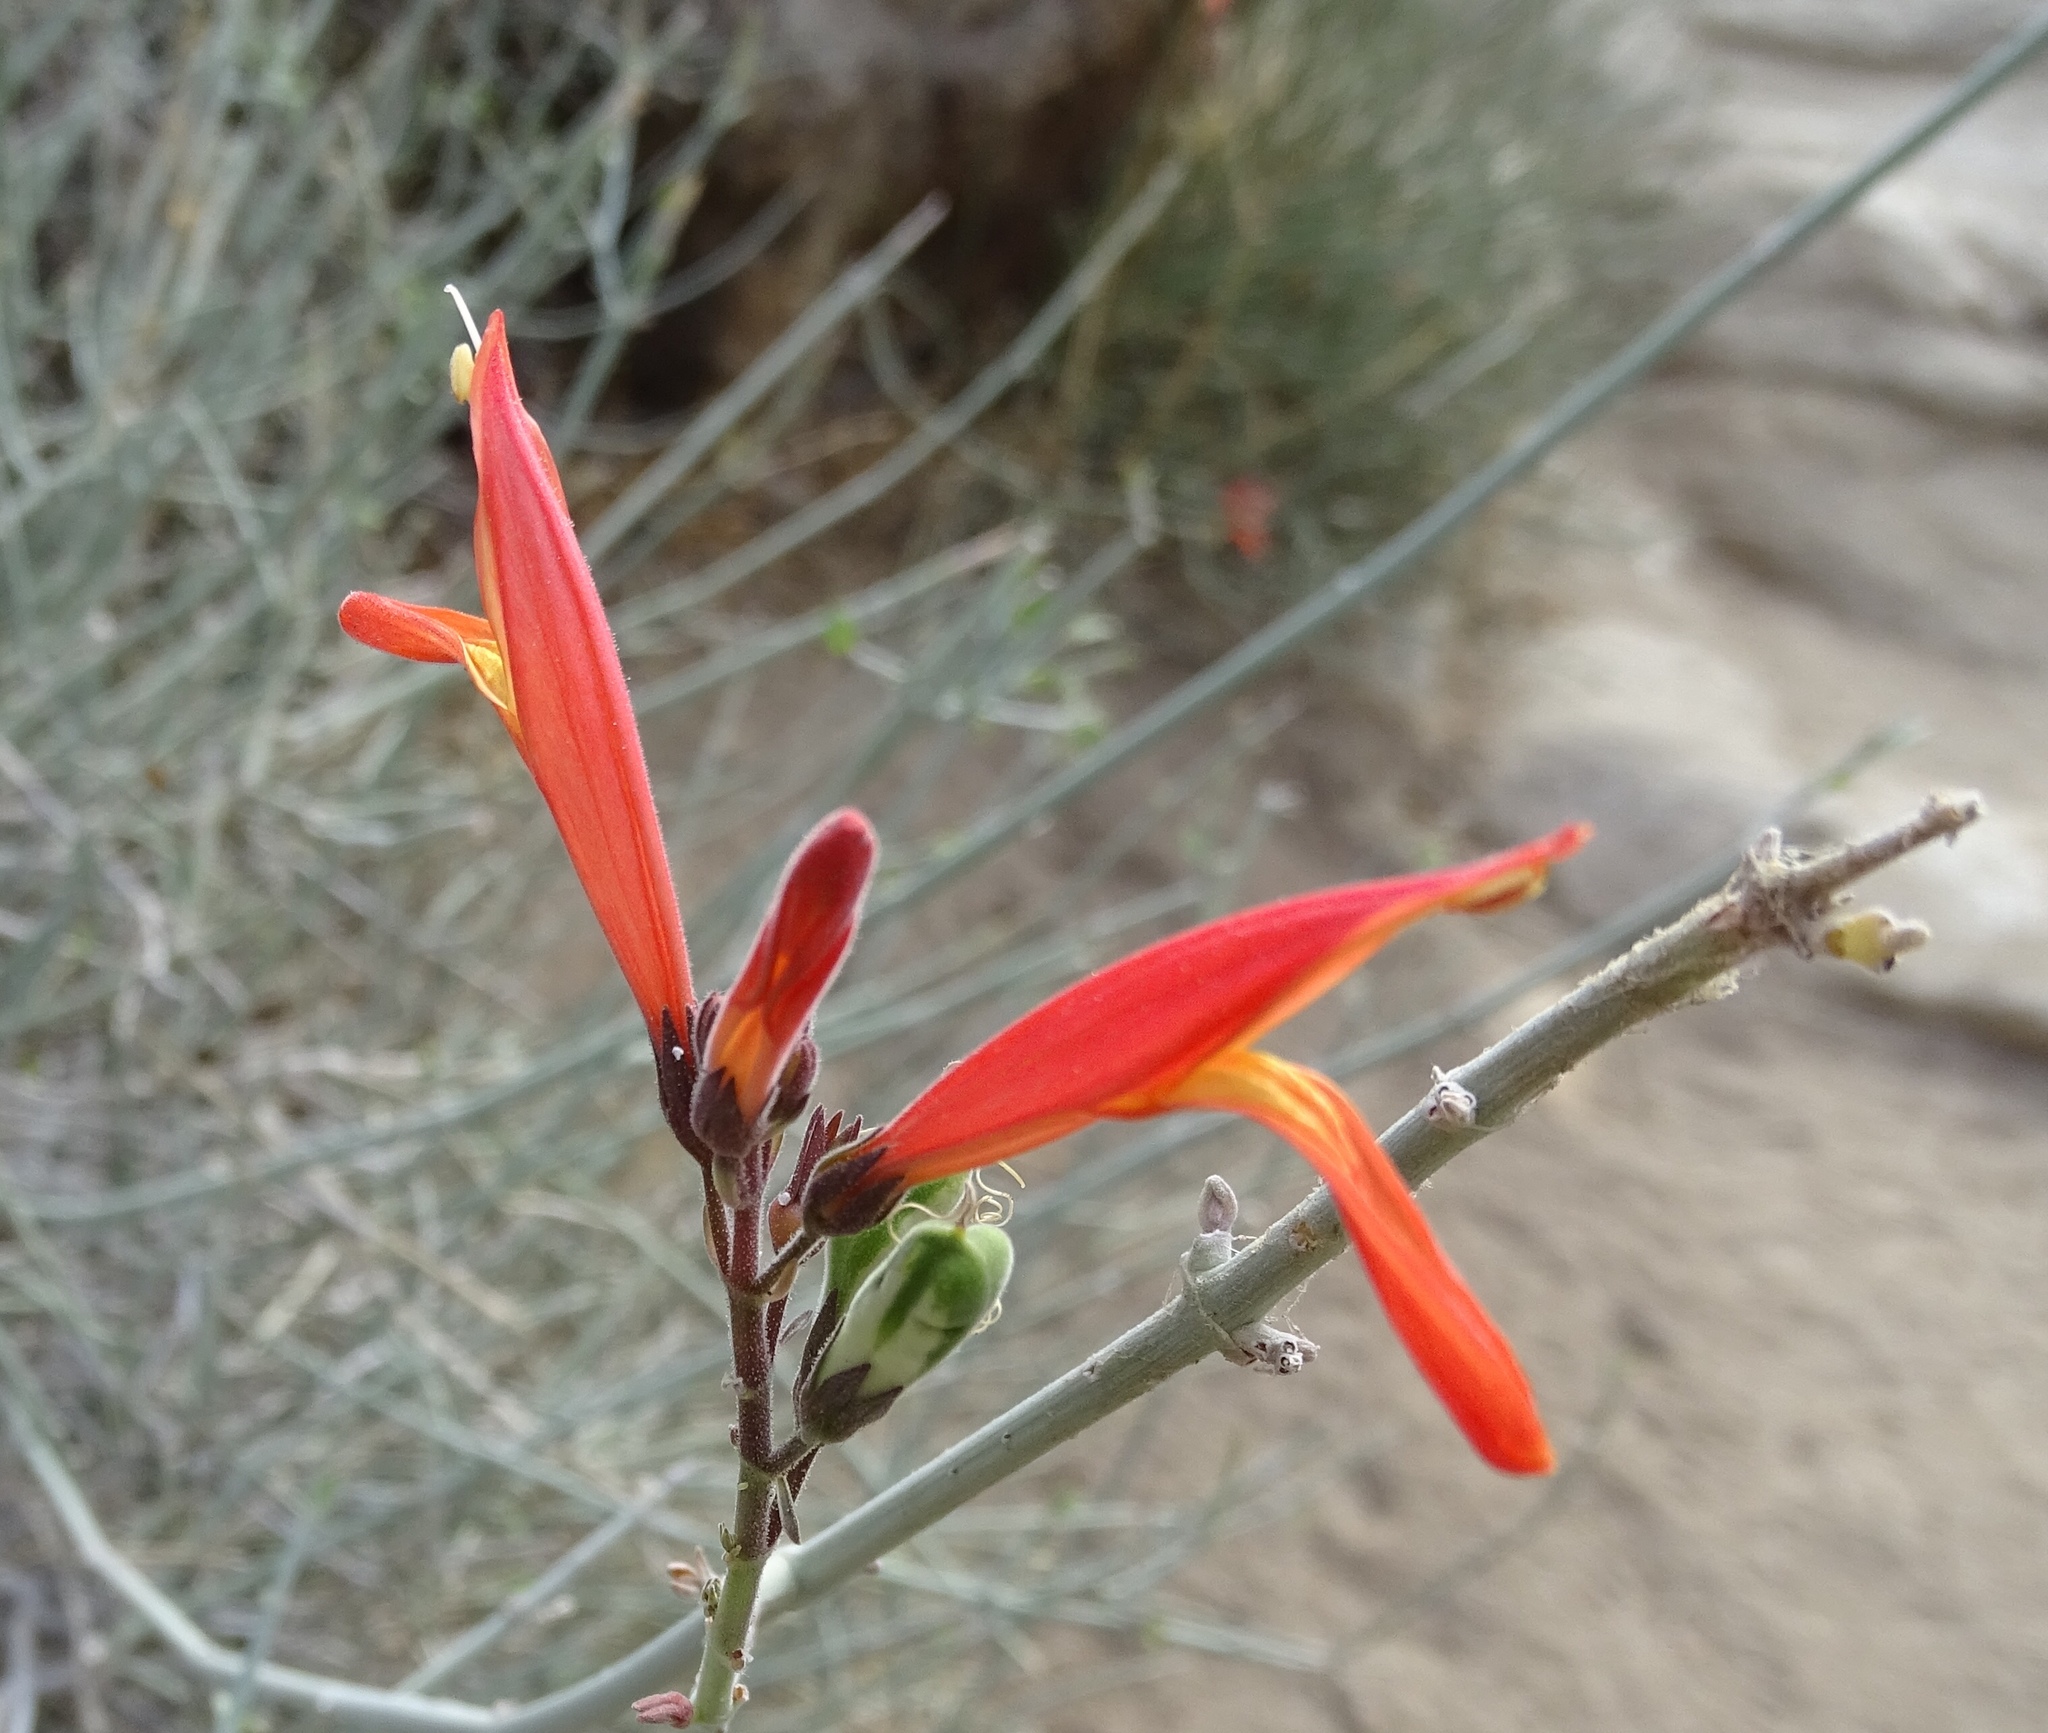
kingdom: Plantae
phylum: Tracheophyta
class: Magnoliopsida
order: Lamiales
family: Acanthaceae
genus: Justicia
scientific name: Justicia californica
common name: Chuparosa-honeysuckle
